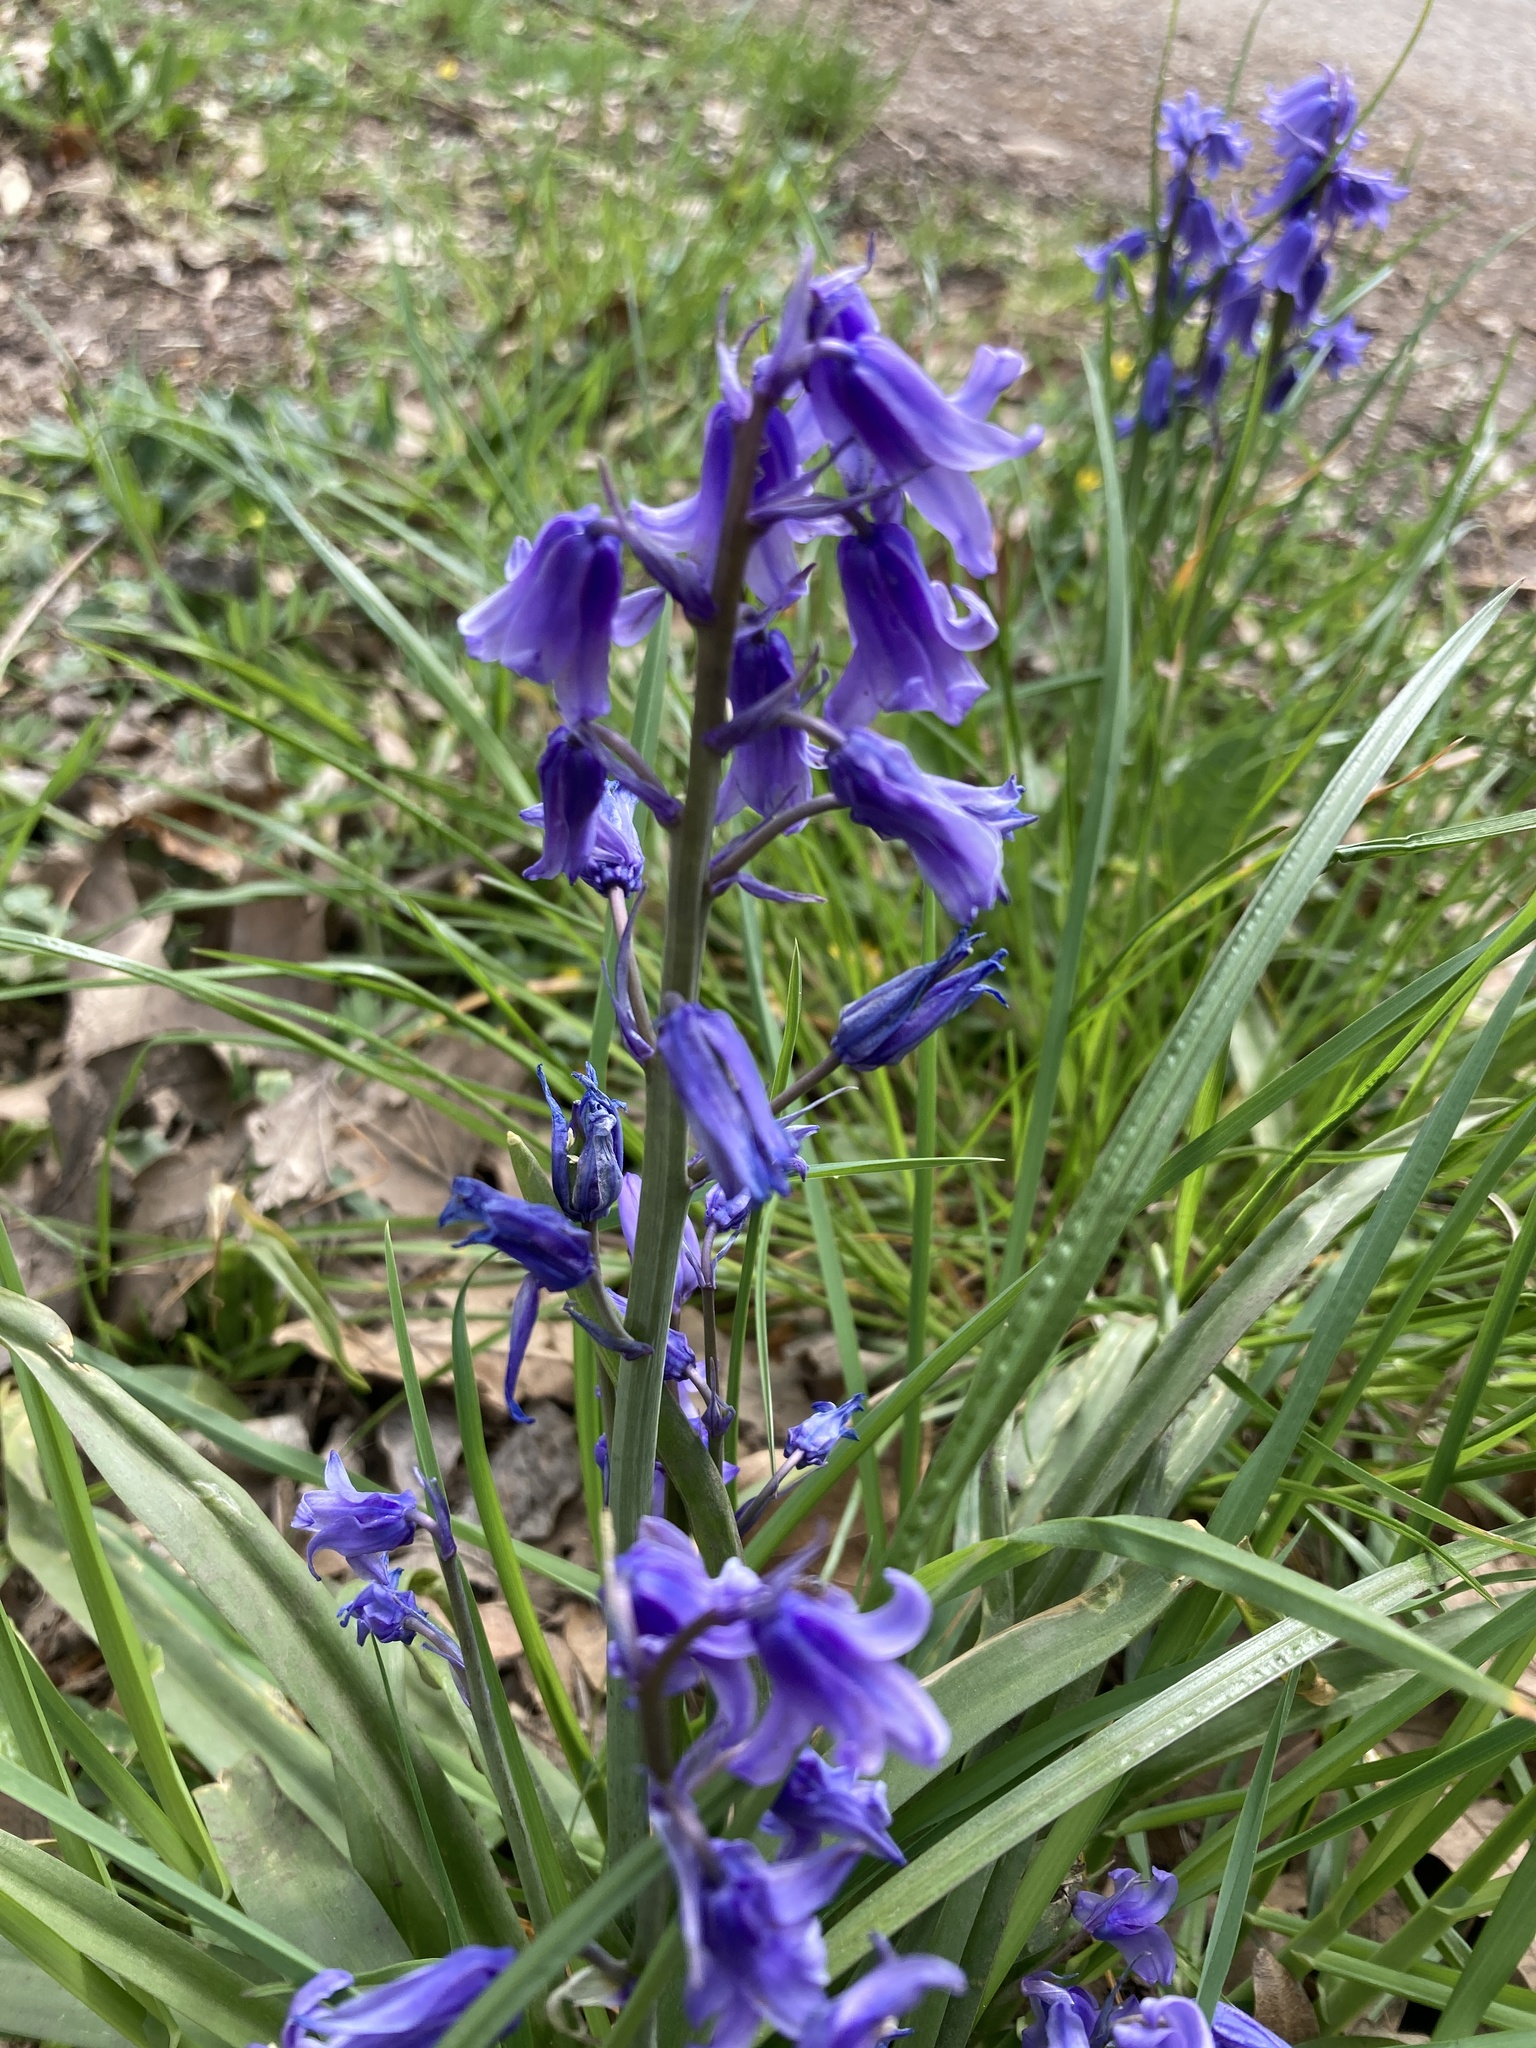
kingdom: Plantae
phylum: Tracheophyta
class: Liliopsida
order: Asparagales
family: Asparagaceae
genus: Hyacinthoides
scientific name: Hyacinthoides massartiana
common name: Hyacinthoides
